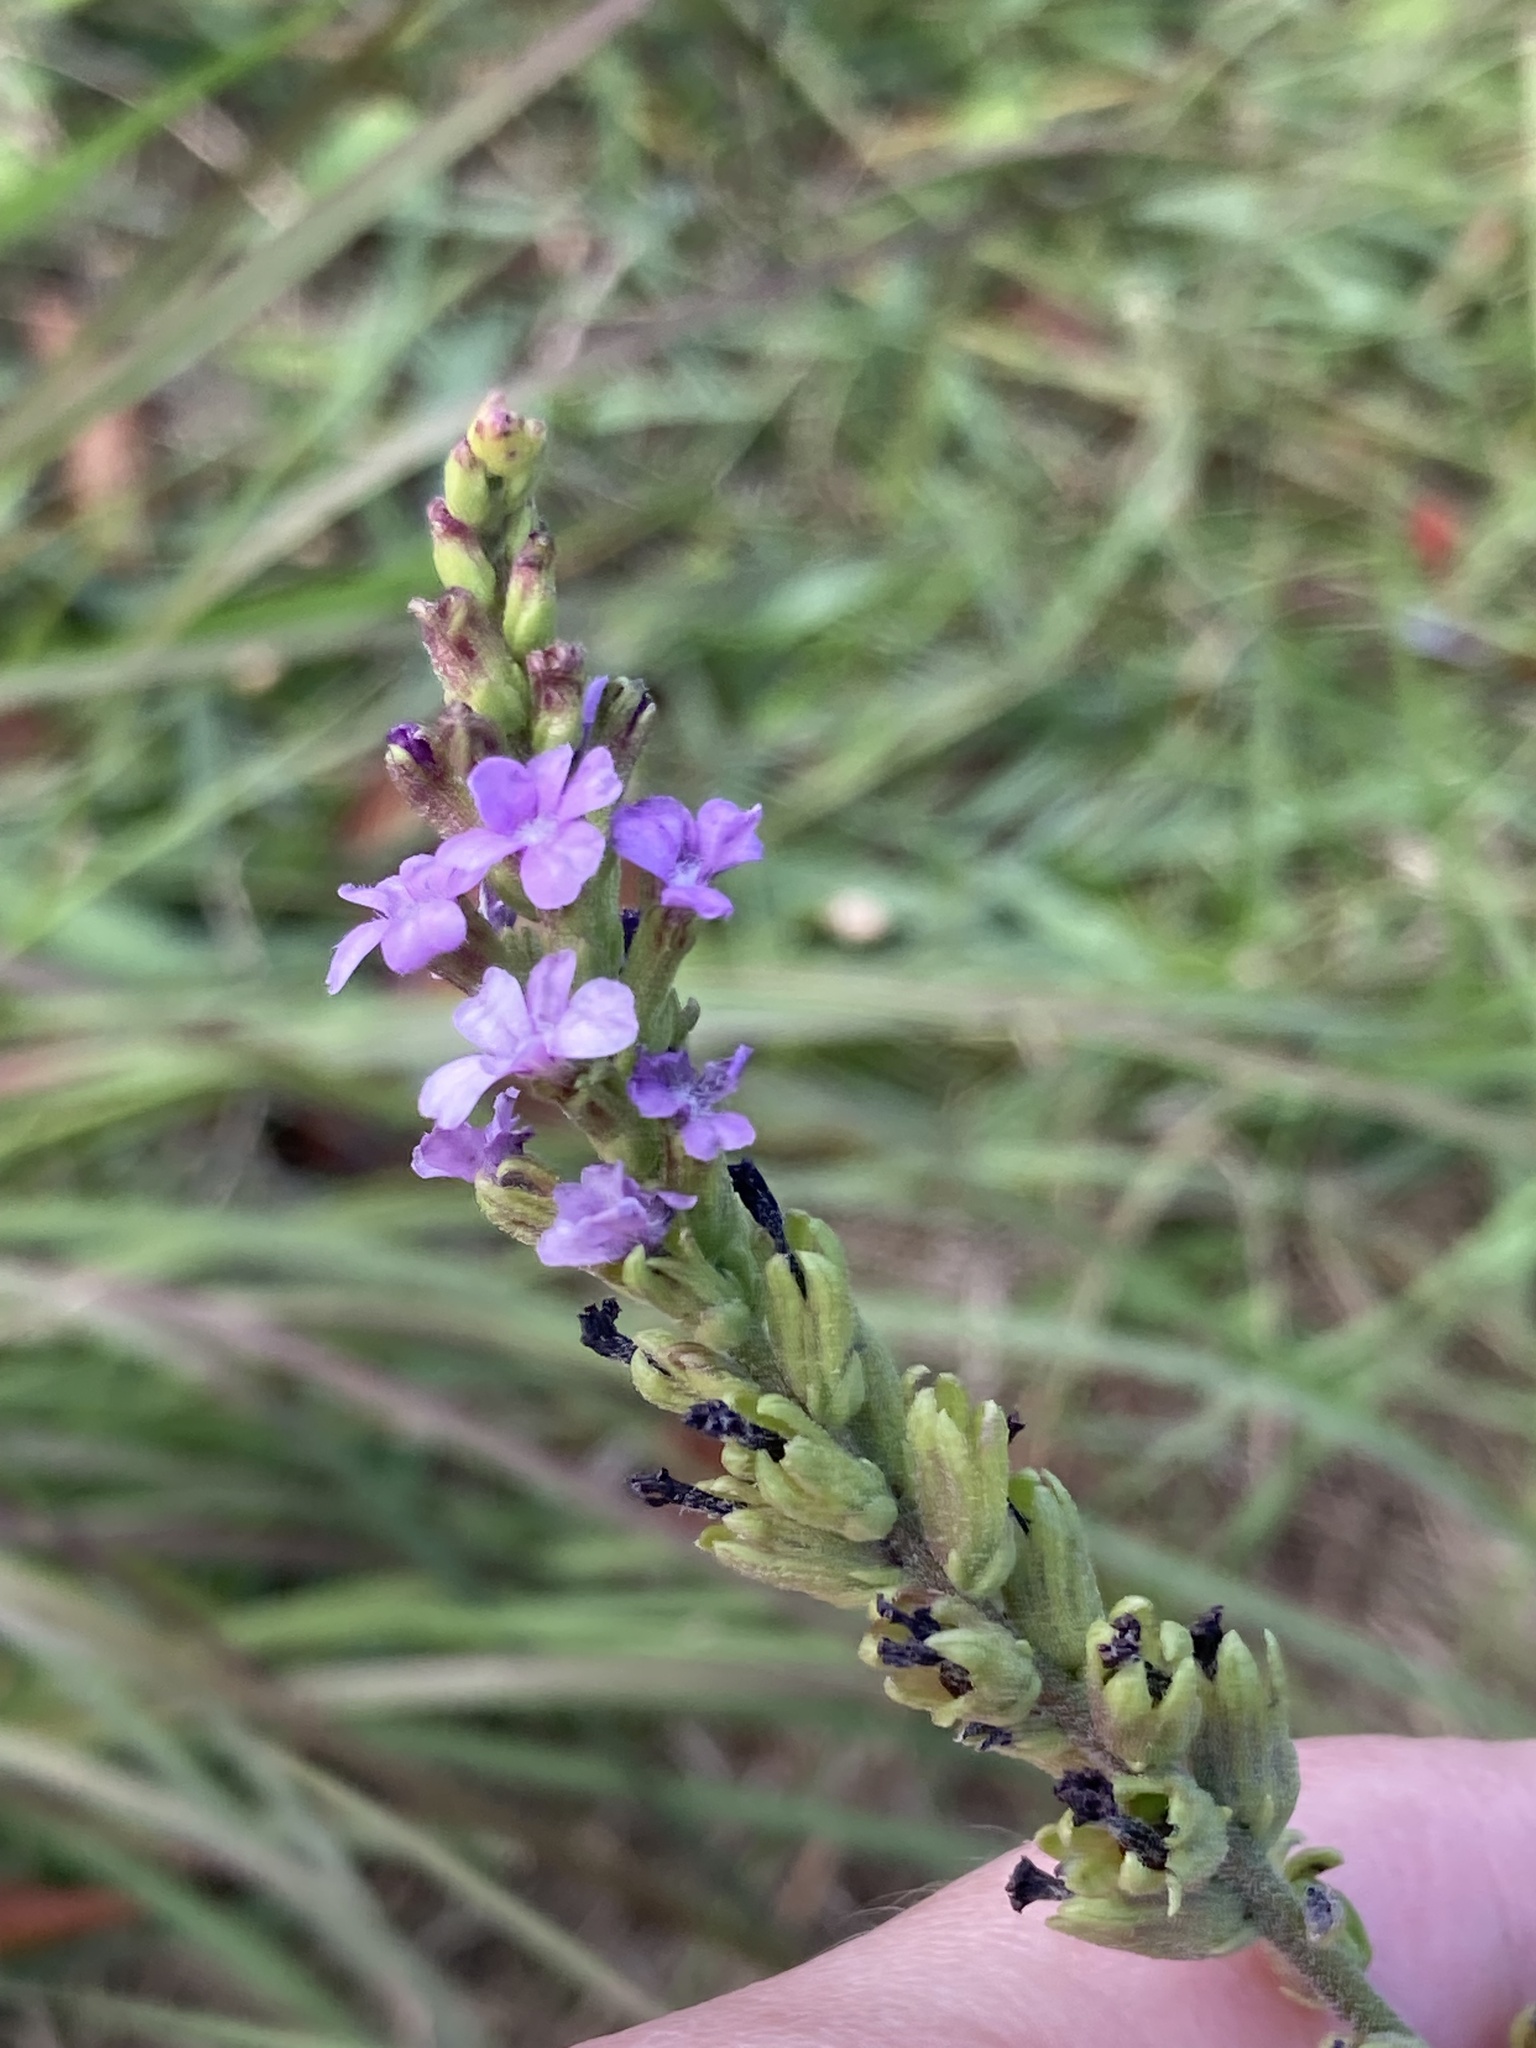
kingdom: Plantae
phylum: Tracheophyta
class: Magnoliopsida
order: Lamiales
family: Orobanchaceae
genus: Buchnera
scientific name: Buchnera floridana
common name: Florida bluehearts
